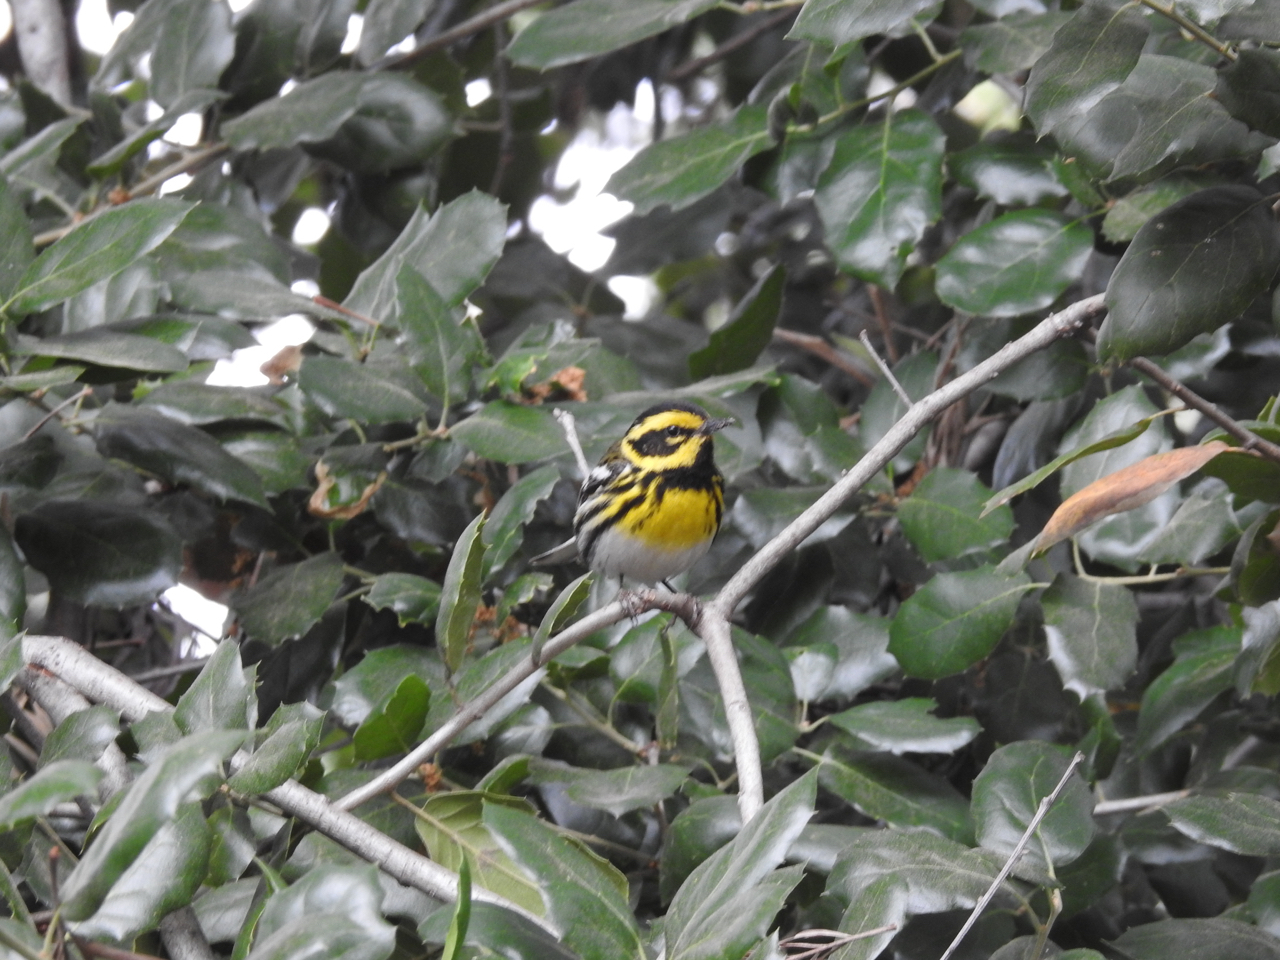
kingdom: Animalia
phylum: Chordata
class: Aves
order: Passeriformes
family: Parulidae
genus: Setophaga
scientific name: Setophaga townsendi
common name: Townsend's warbler
